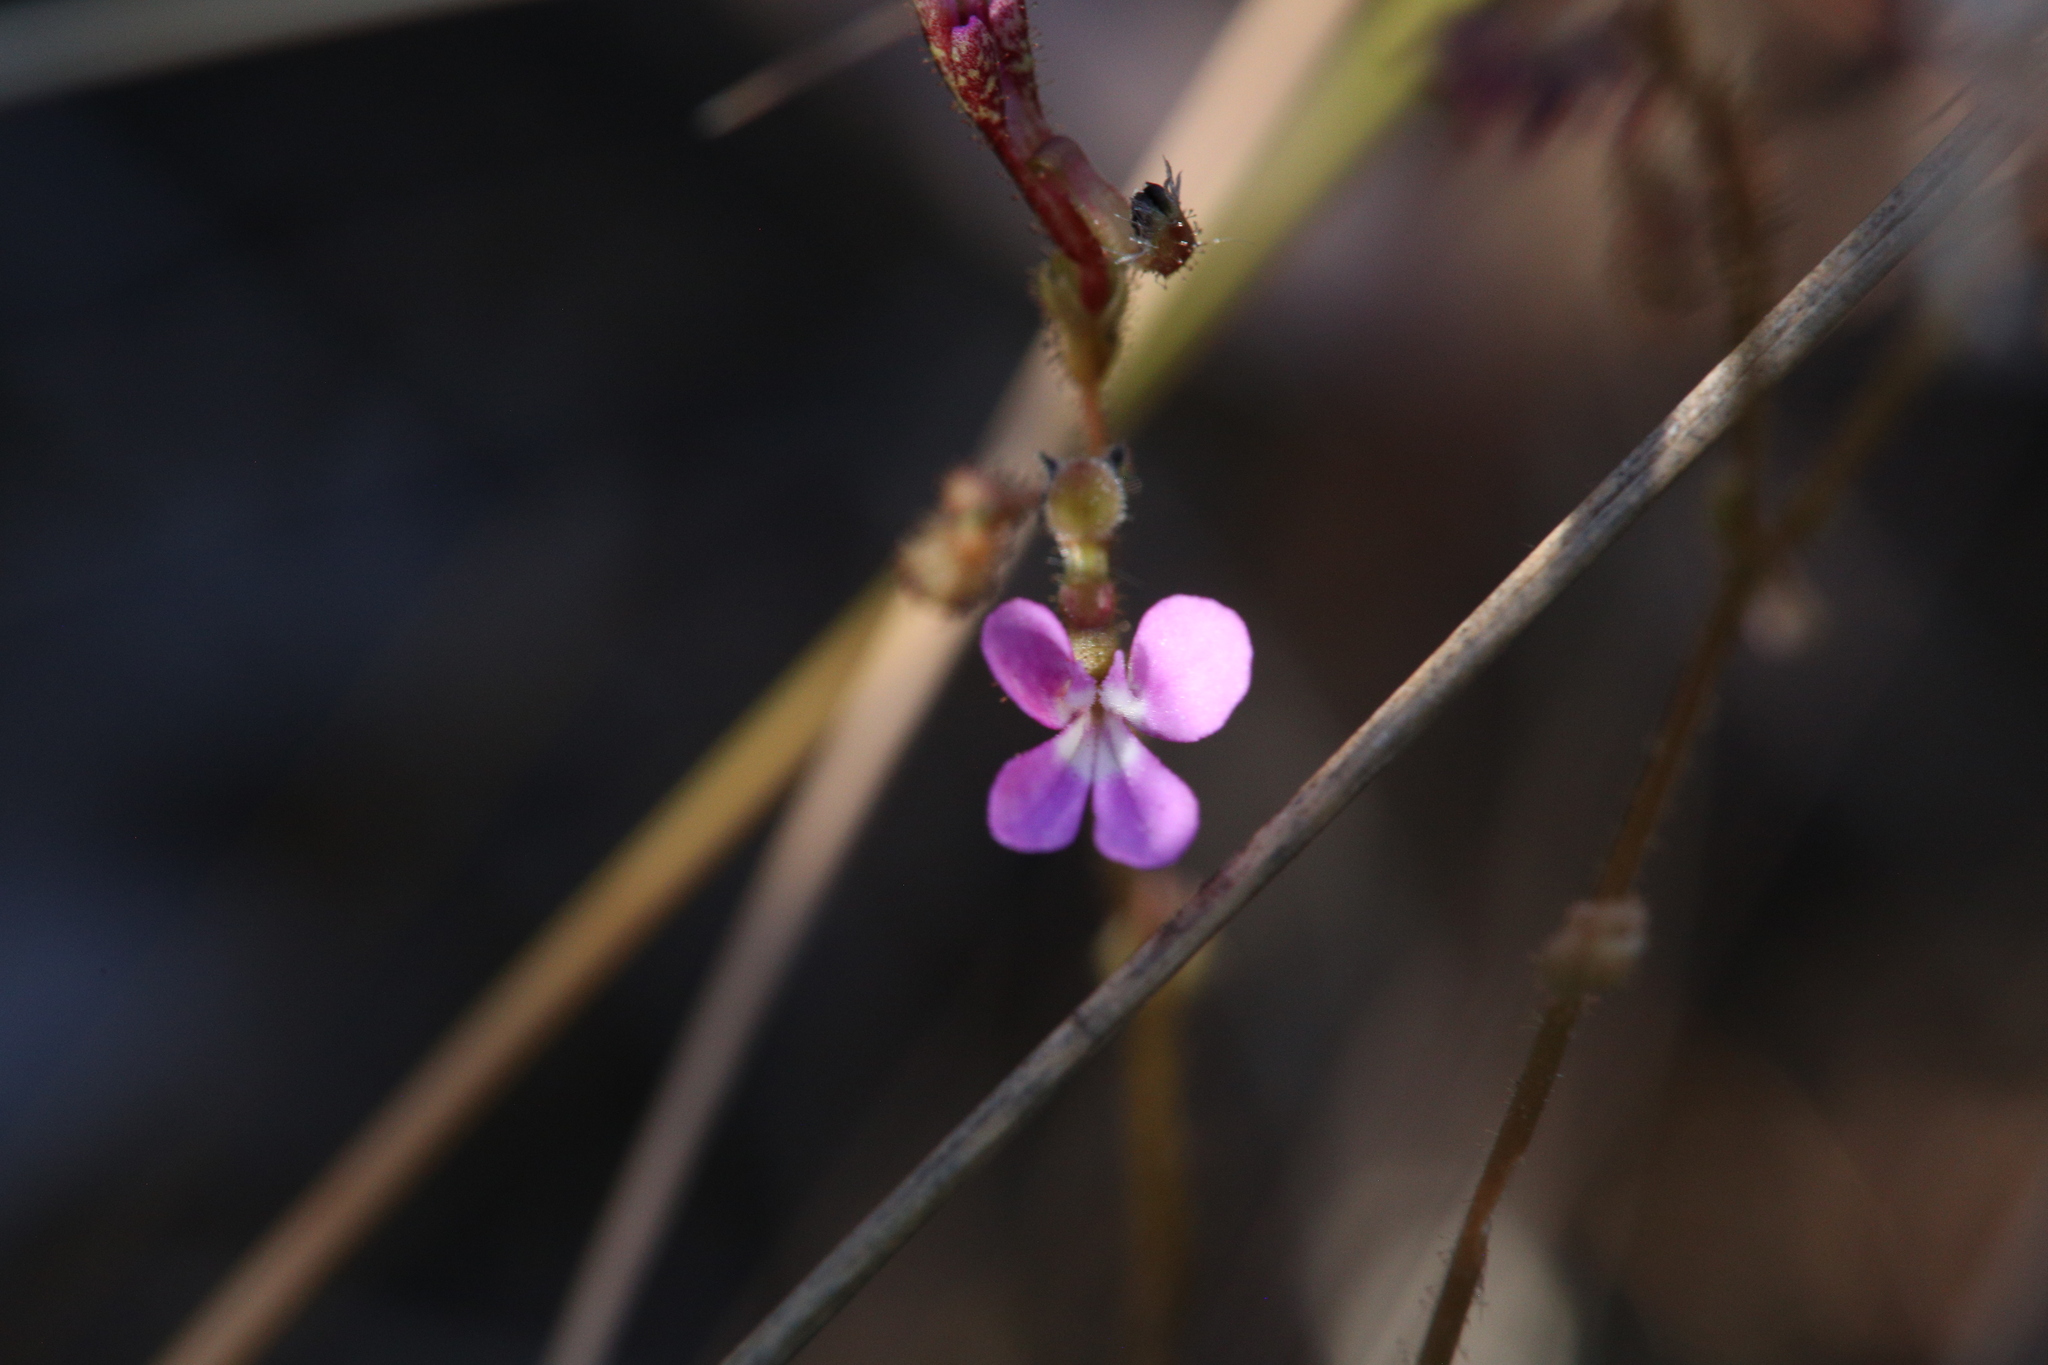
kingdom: Plantae
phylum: Tracheophyta
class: Magnoliopsida
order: Asterales
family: Stylidiaceae
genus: Stylidium
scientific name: Stylidium leptorrhizum
